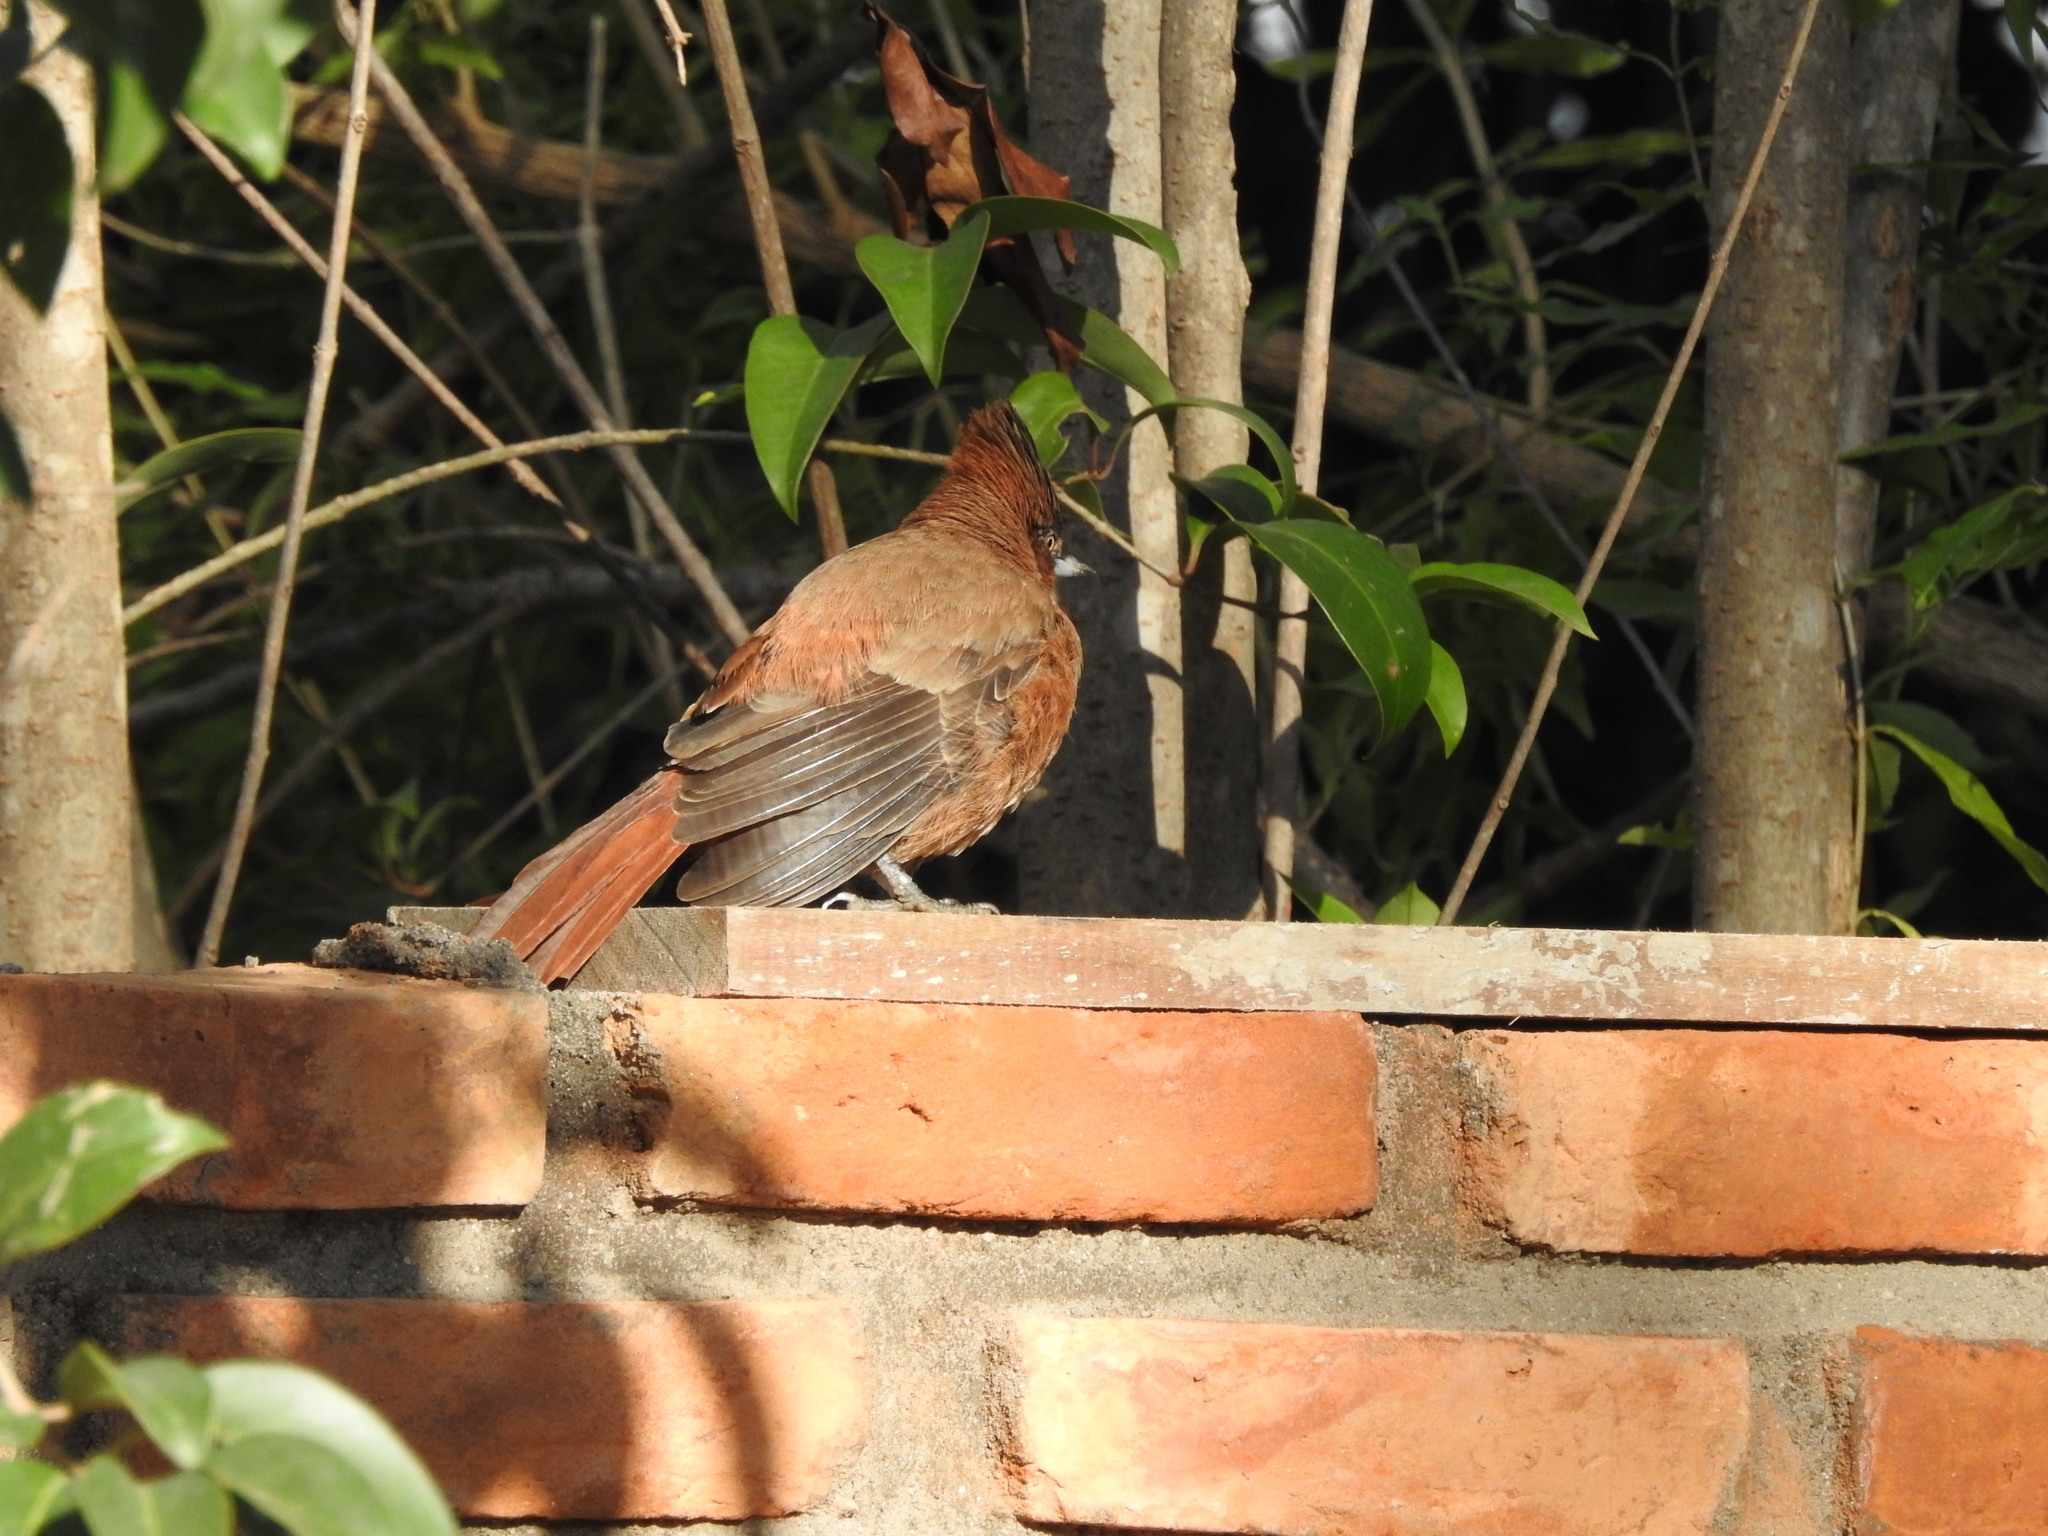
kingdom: Animalia
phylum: Chordata
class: Aves
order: Passeriformes
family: Furnariidae
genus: Pseudoseisura
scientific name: Pseudoseisura lophotes
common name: Brown cacholote
